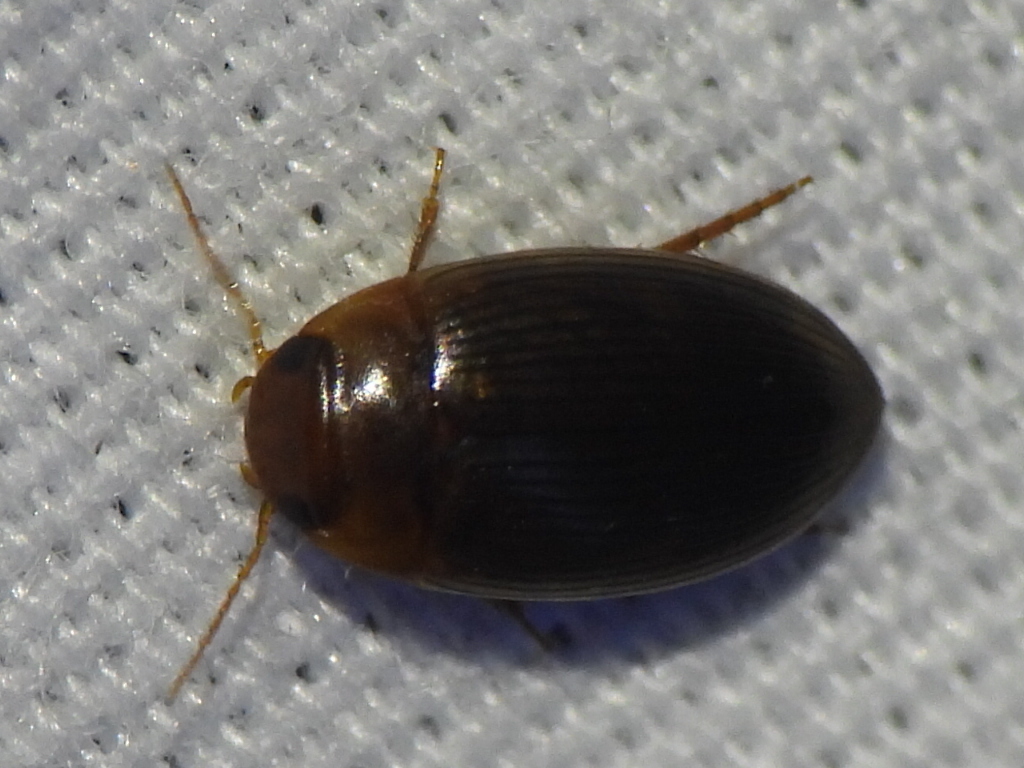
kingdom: Animalia
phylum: Arthropoda
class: Insecta
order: Coleoptera
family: Dytiscidae
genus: Copelatus
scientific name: Copelatus glyphicus
